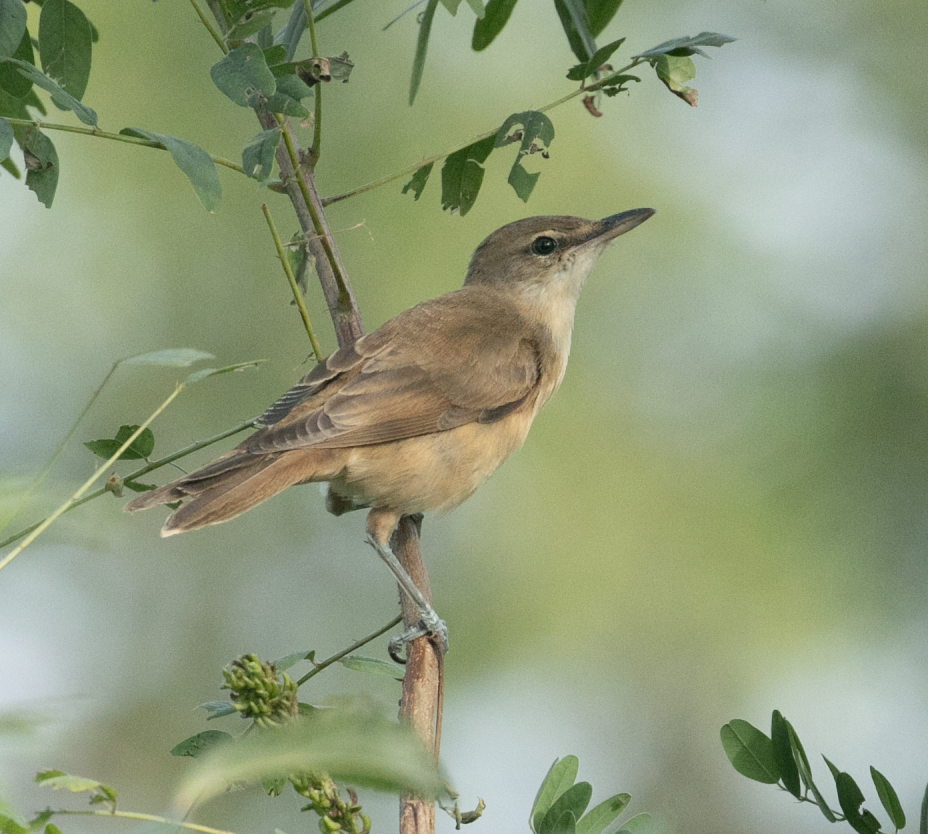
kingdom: Animalia
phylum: Chordata
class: Aves
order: Passeriformes
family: Acrocephalidae
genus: Acrocephalus
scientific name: Acrocephalus arundinaceus
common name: Great reed warbler
